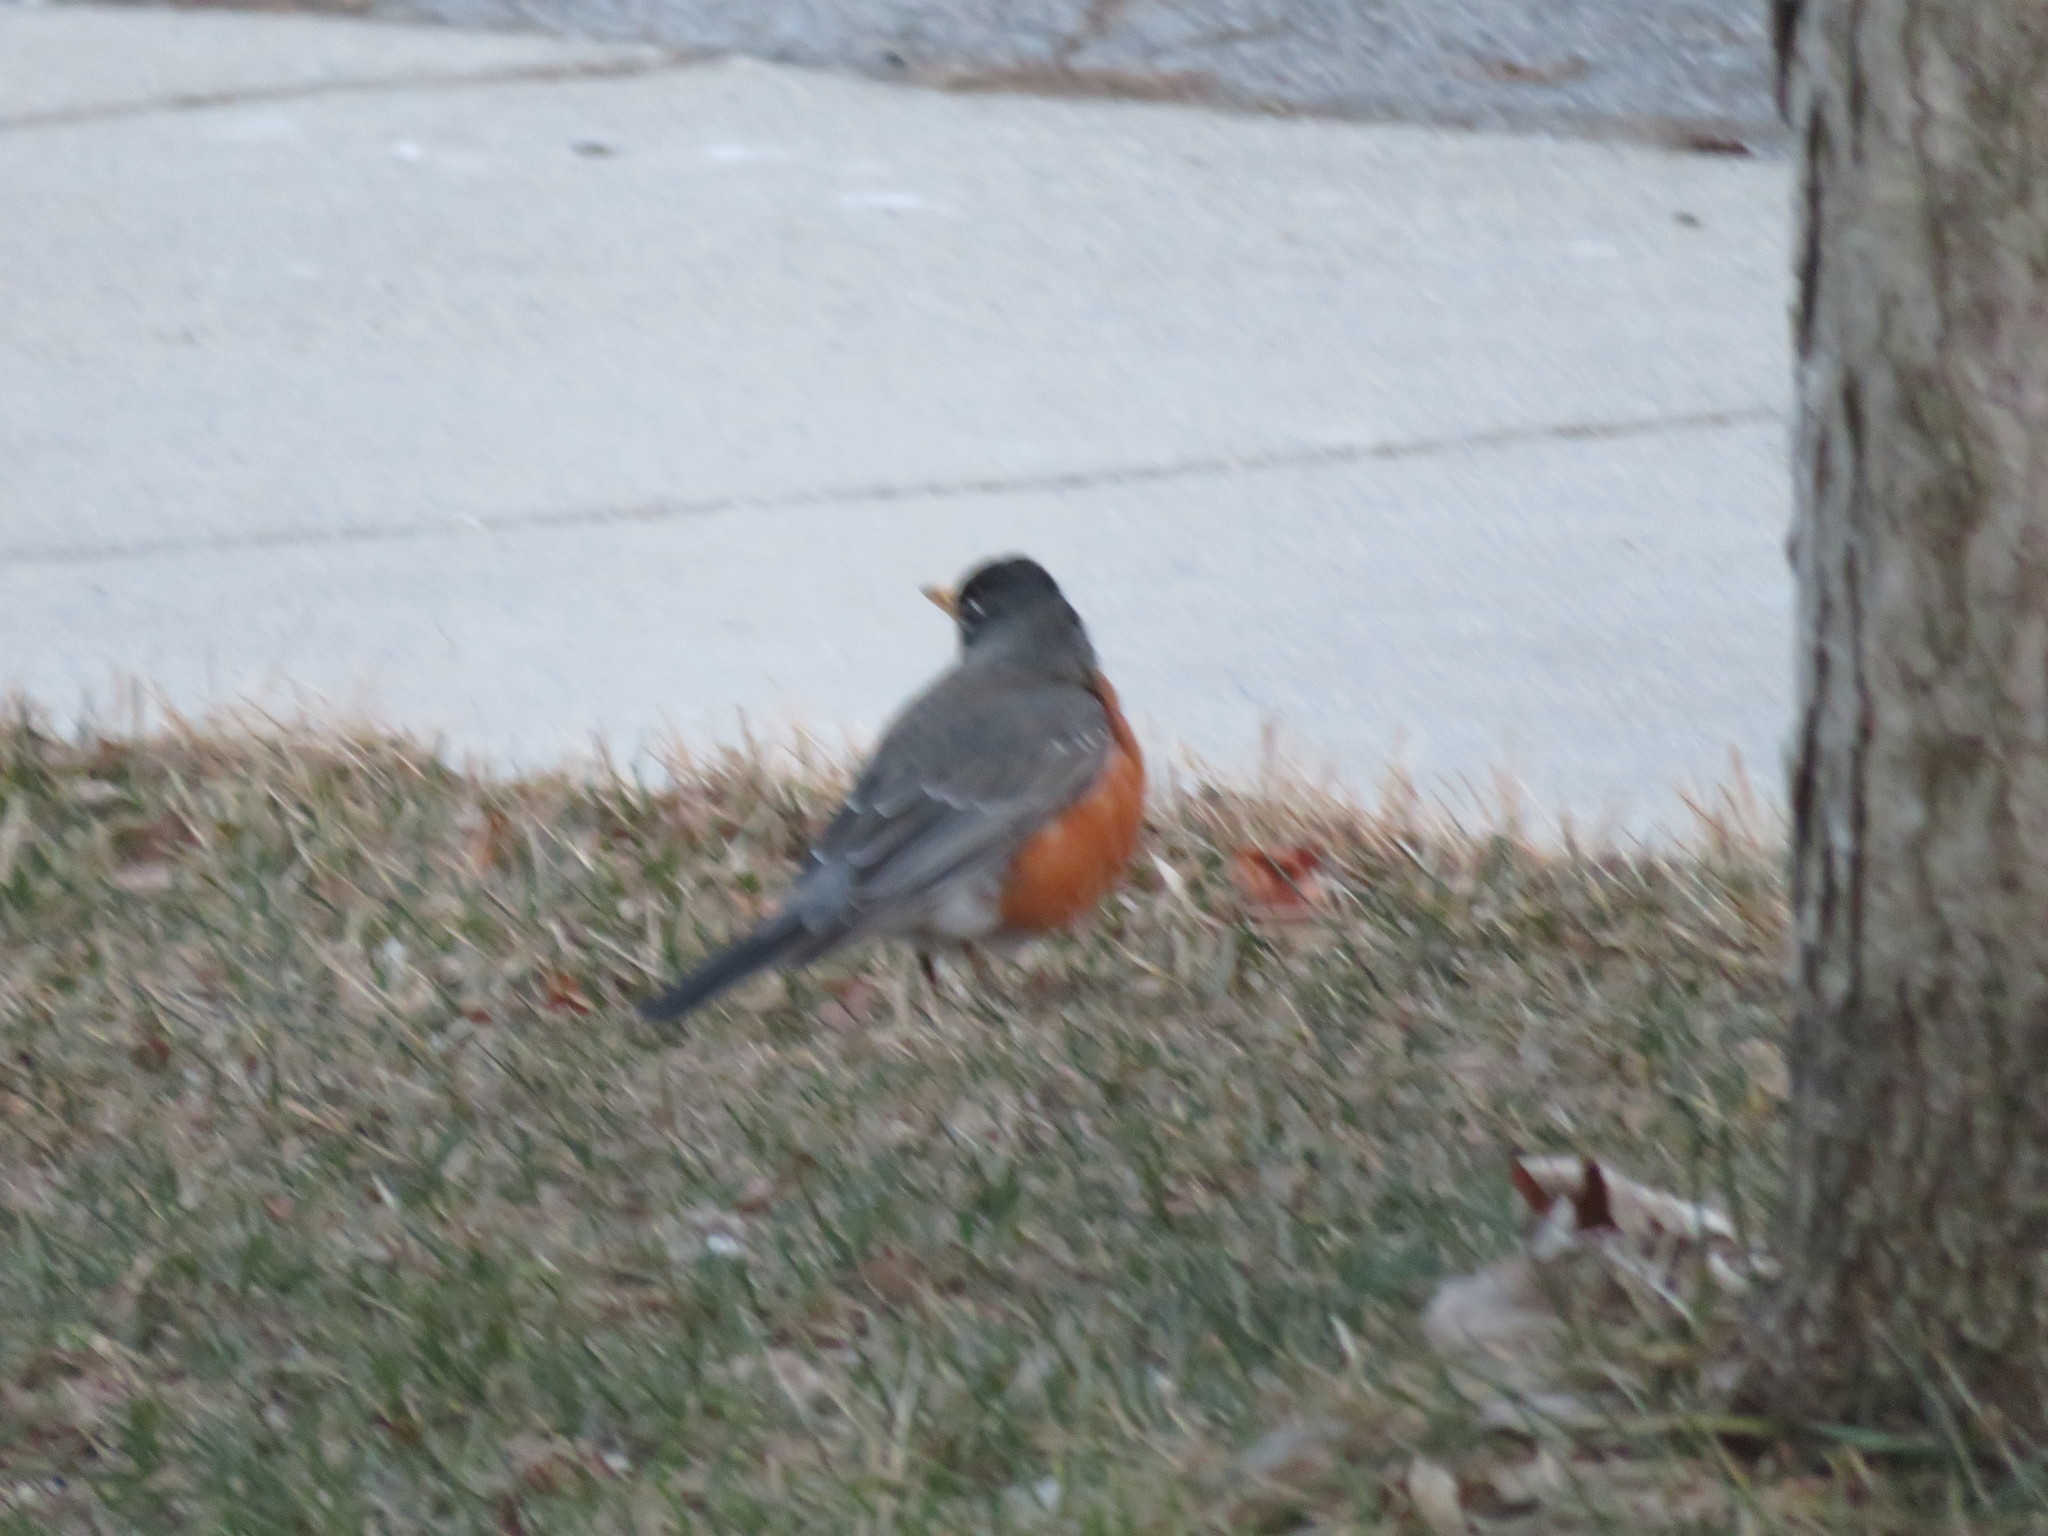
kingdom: Animalia
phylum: Chordata
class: Aves
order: Passeriformes
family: Turdidae
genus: Turdus
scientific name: Turdus migratorius
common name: American robin
